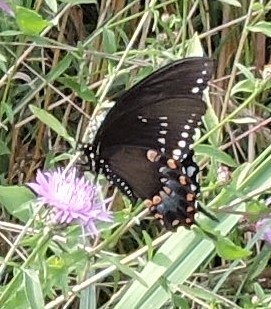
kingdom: Animalia
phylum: Arthropoda
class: Insecta
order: Lepidoptera
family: Papilionidae
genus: Papilio
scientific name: Papilio troilus
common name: Spicebush swallowtail
